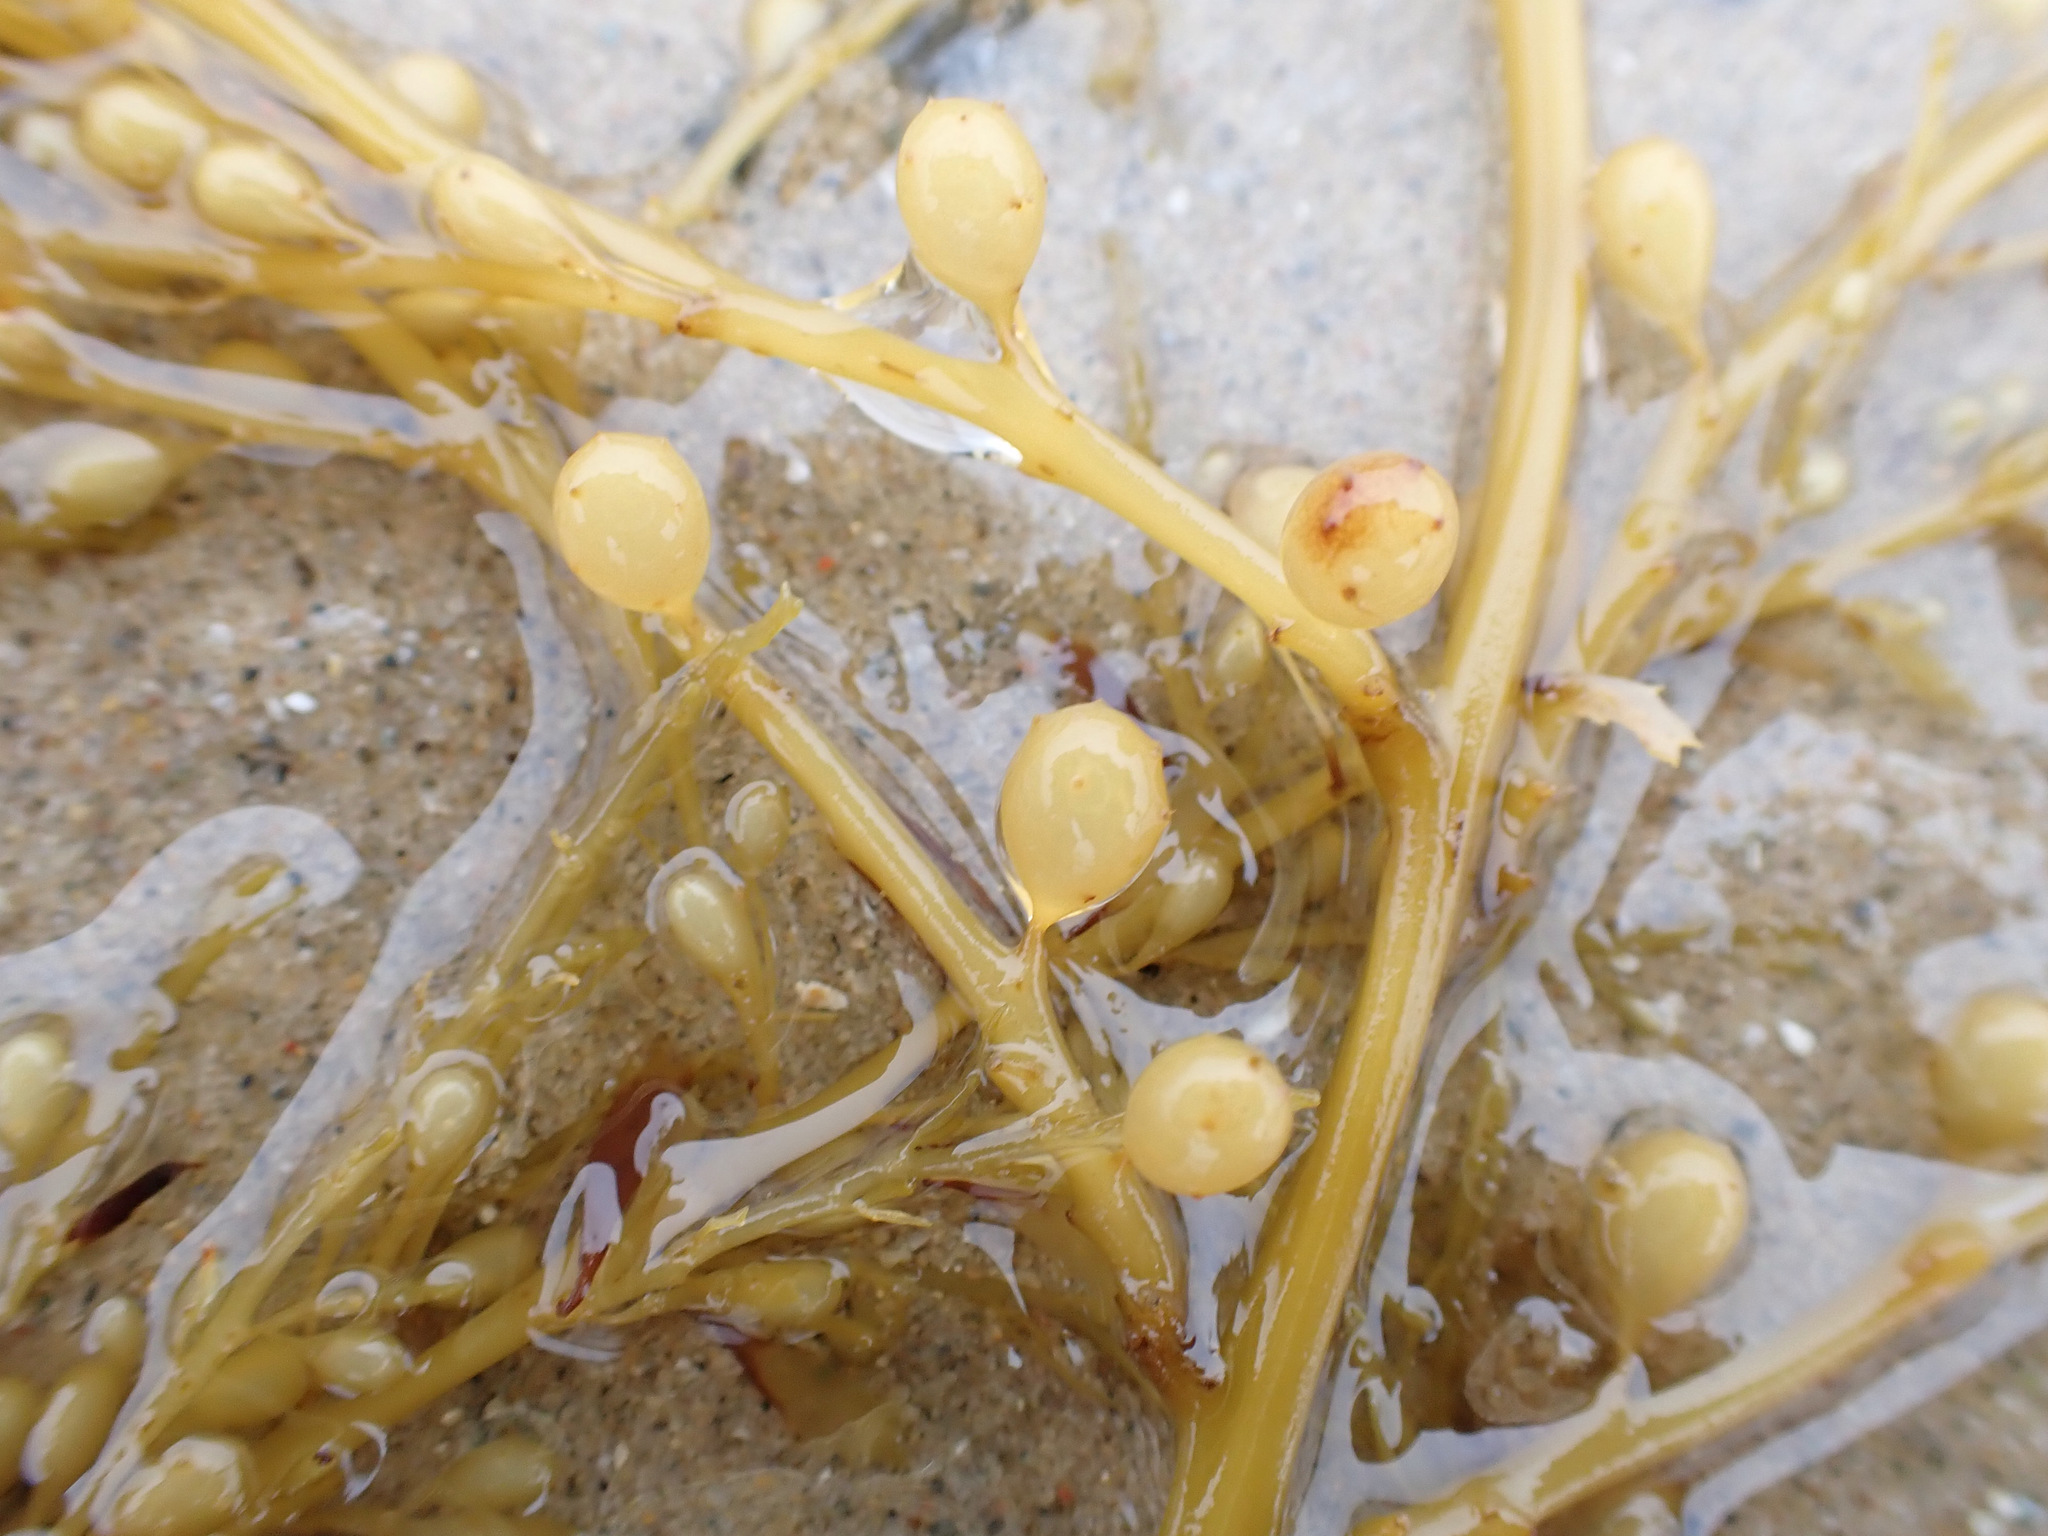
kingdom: Chromista
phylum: Ochrophyta
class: Phaeophyceae
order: Fucales
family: Sargassaceae
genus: Sargassum
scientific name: Sargassum muticum
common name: Japweed
